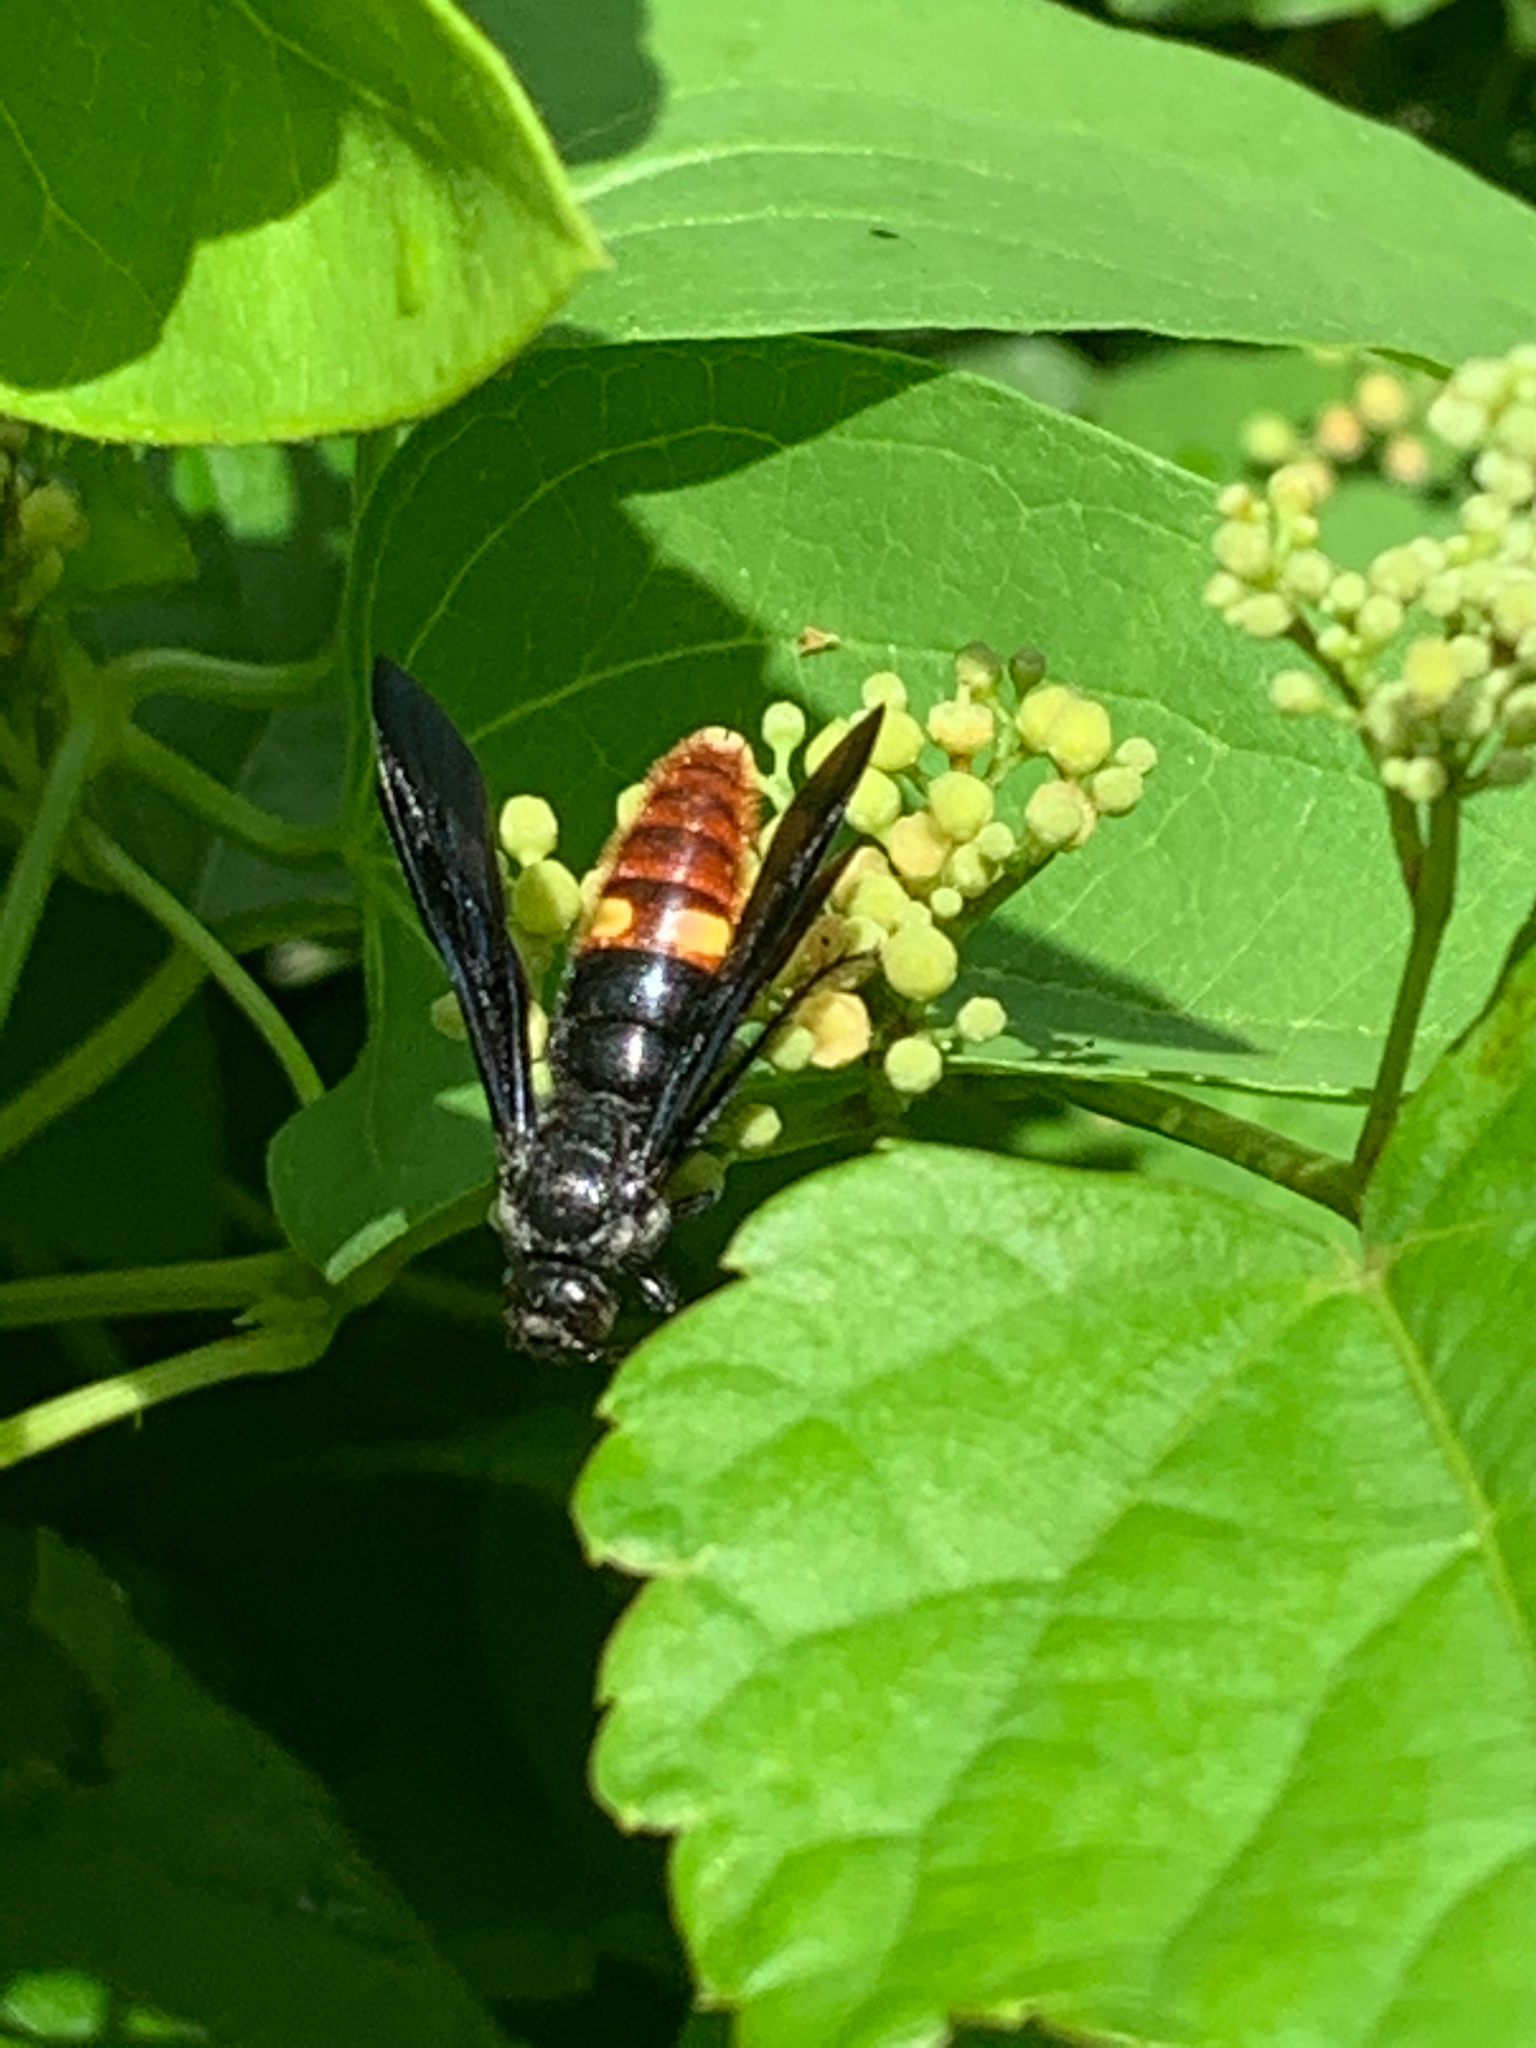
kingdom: Animalia
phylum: Arthropoda
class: Insecta
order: Hymenoptera
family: Scoliidae
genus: Scolia
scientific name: Scolia dubia
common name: Blue-winged scoliid wasp
